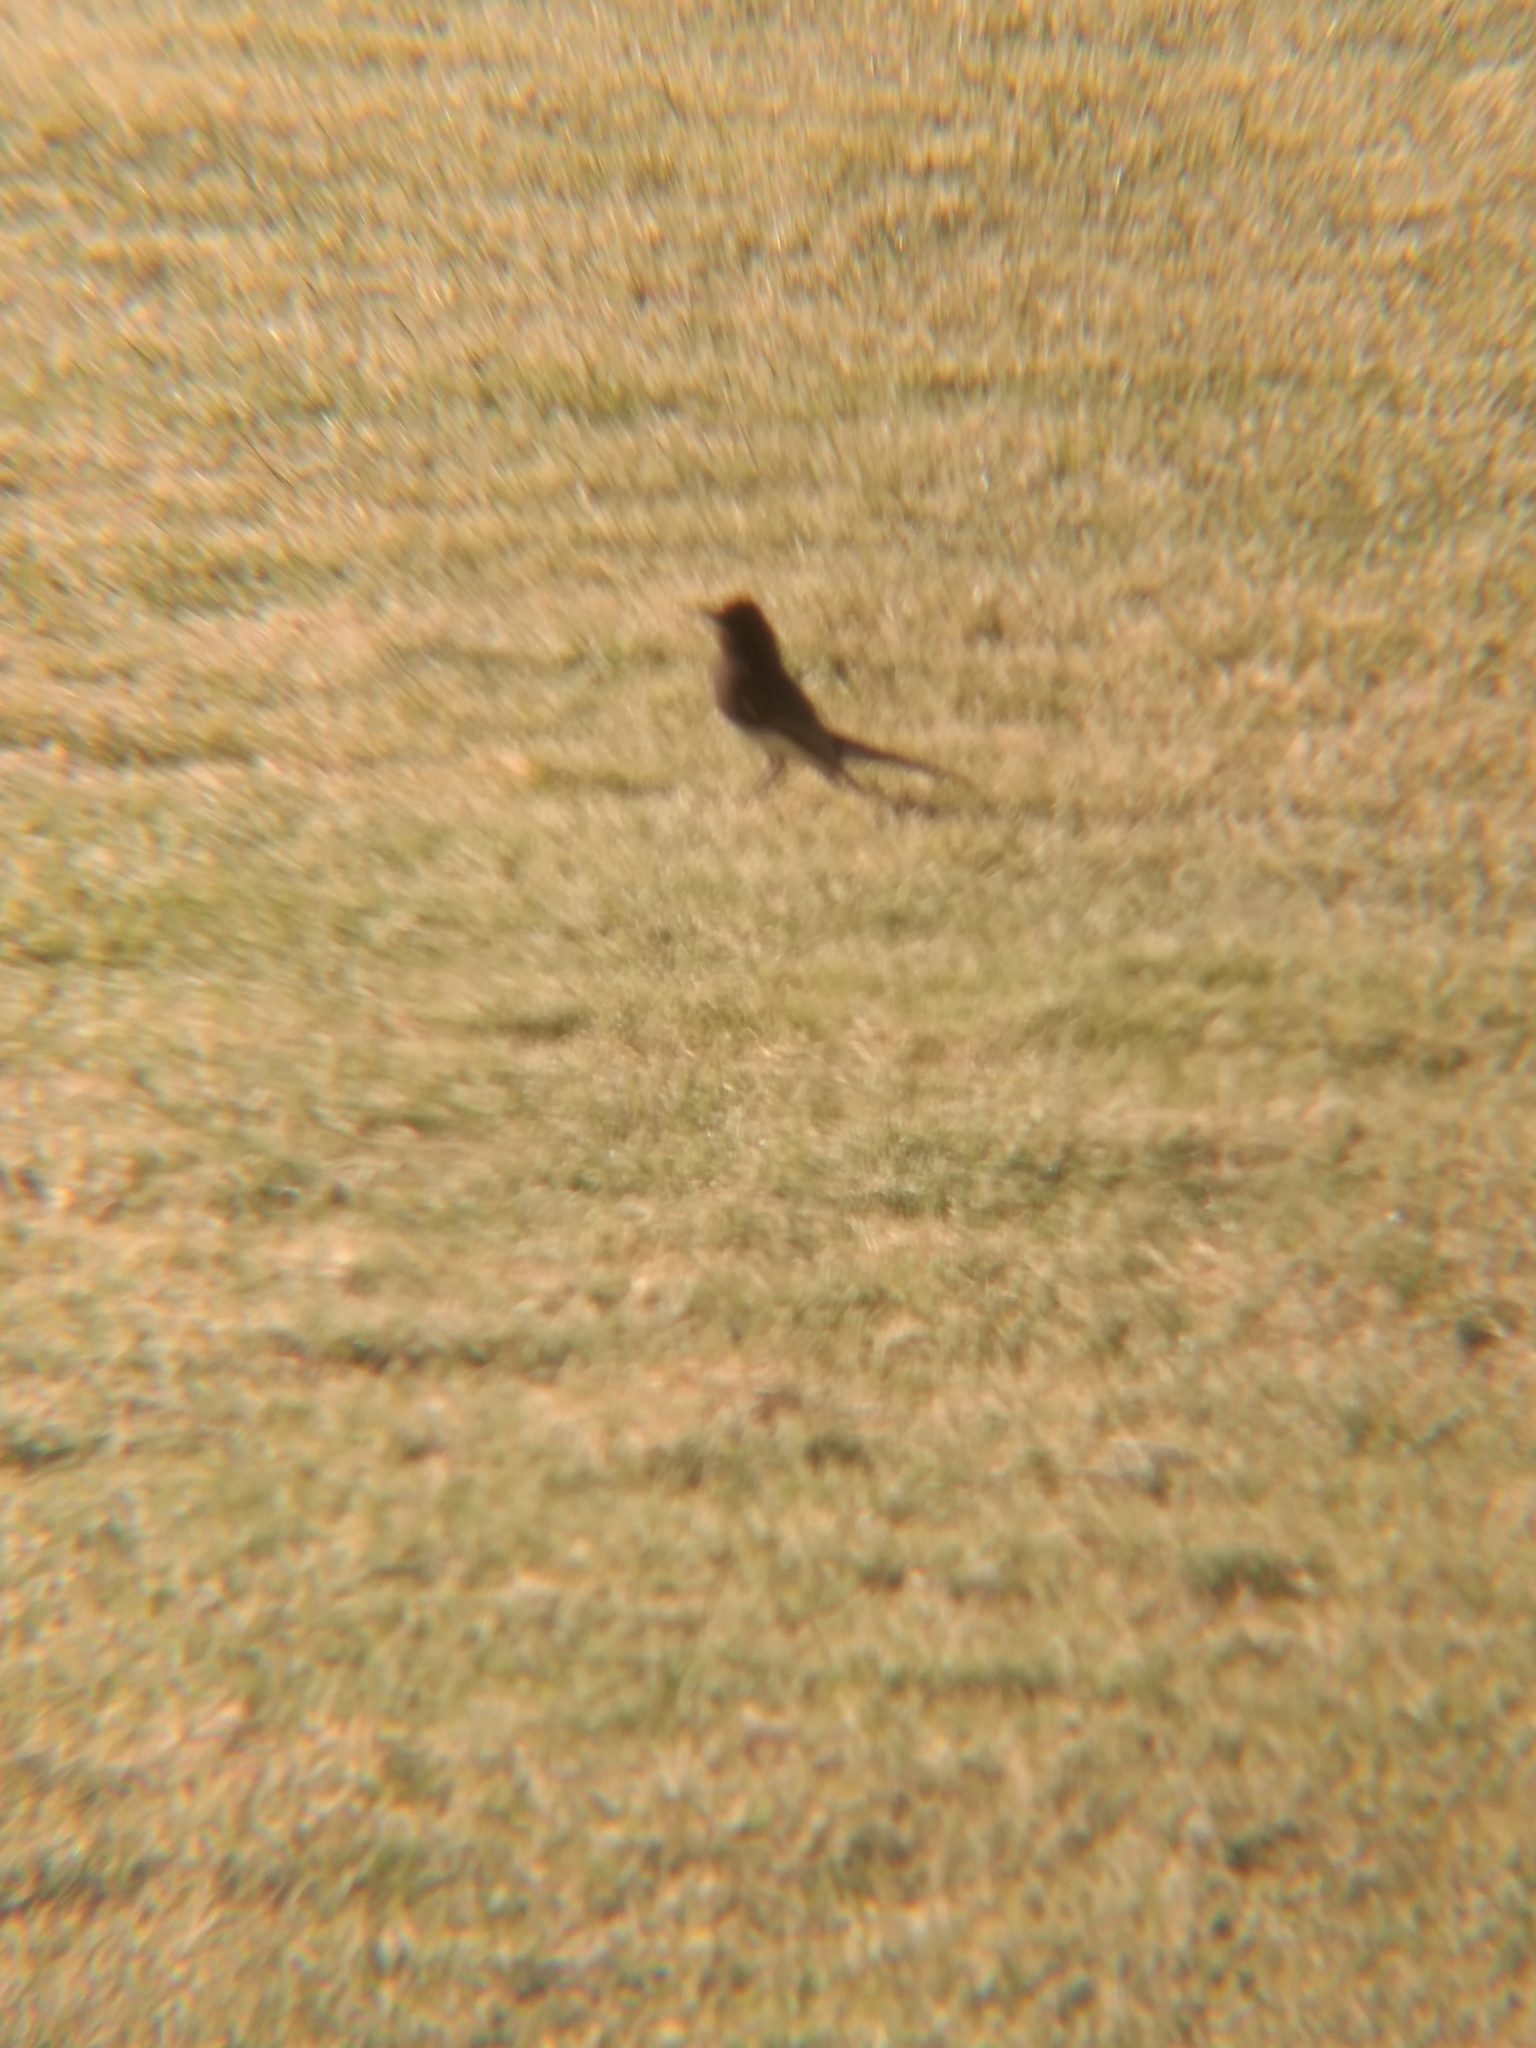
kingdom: Animalia
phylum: Chordata
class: Aves
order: Passeriformes
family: Tyrannidae
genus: Sayornis
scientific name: Sayornis nigricans
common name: Black phoebe
